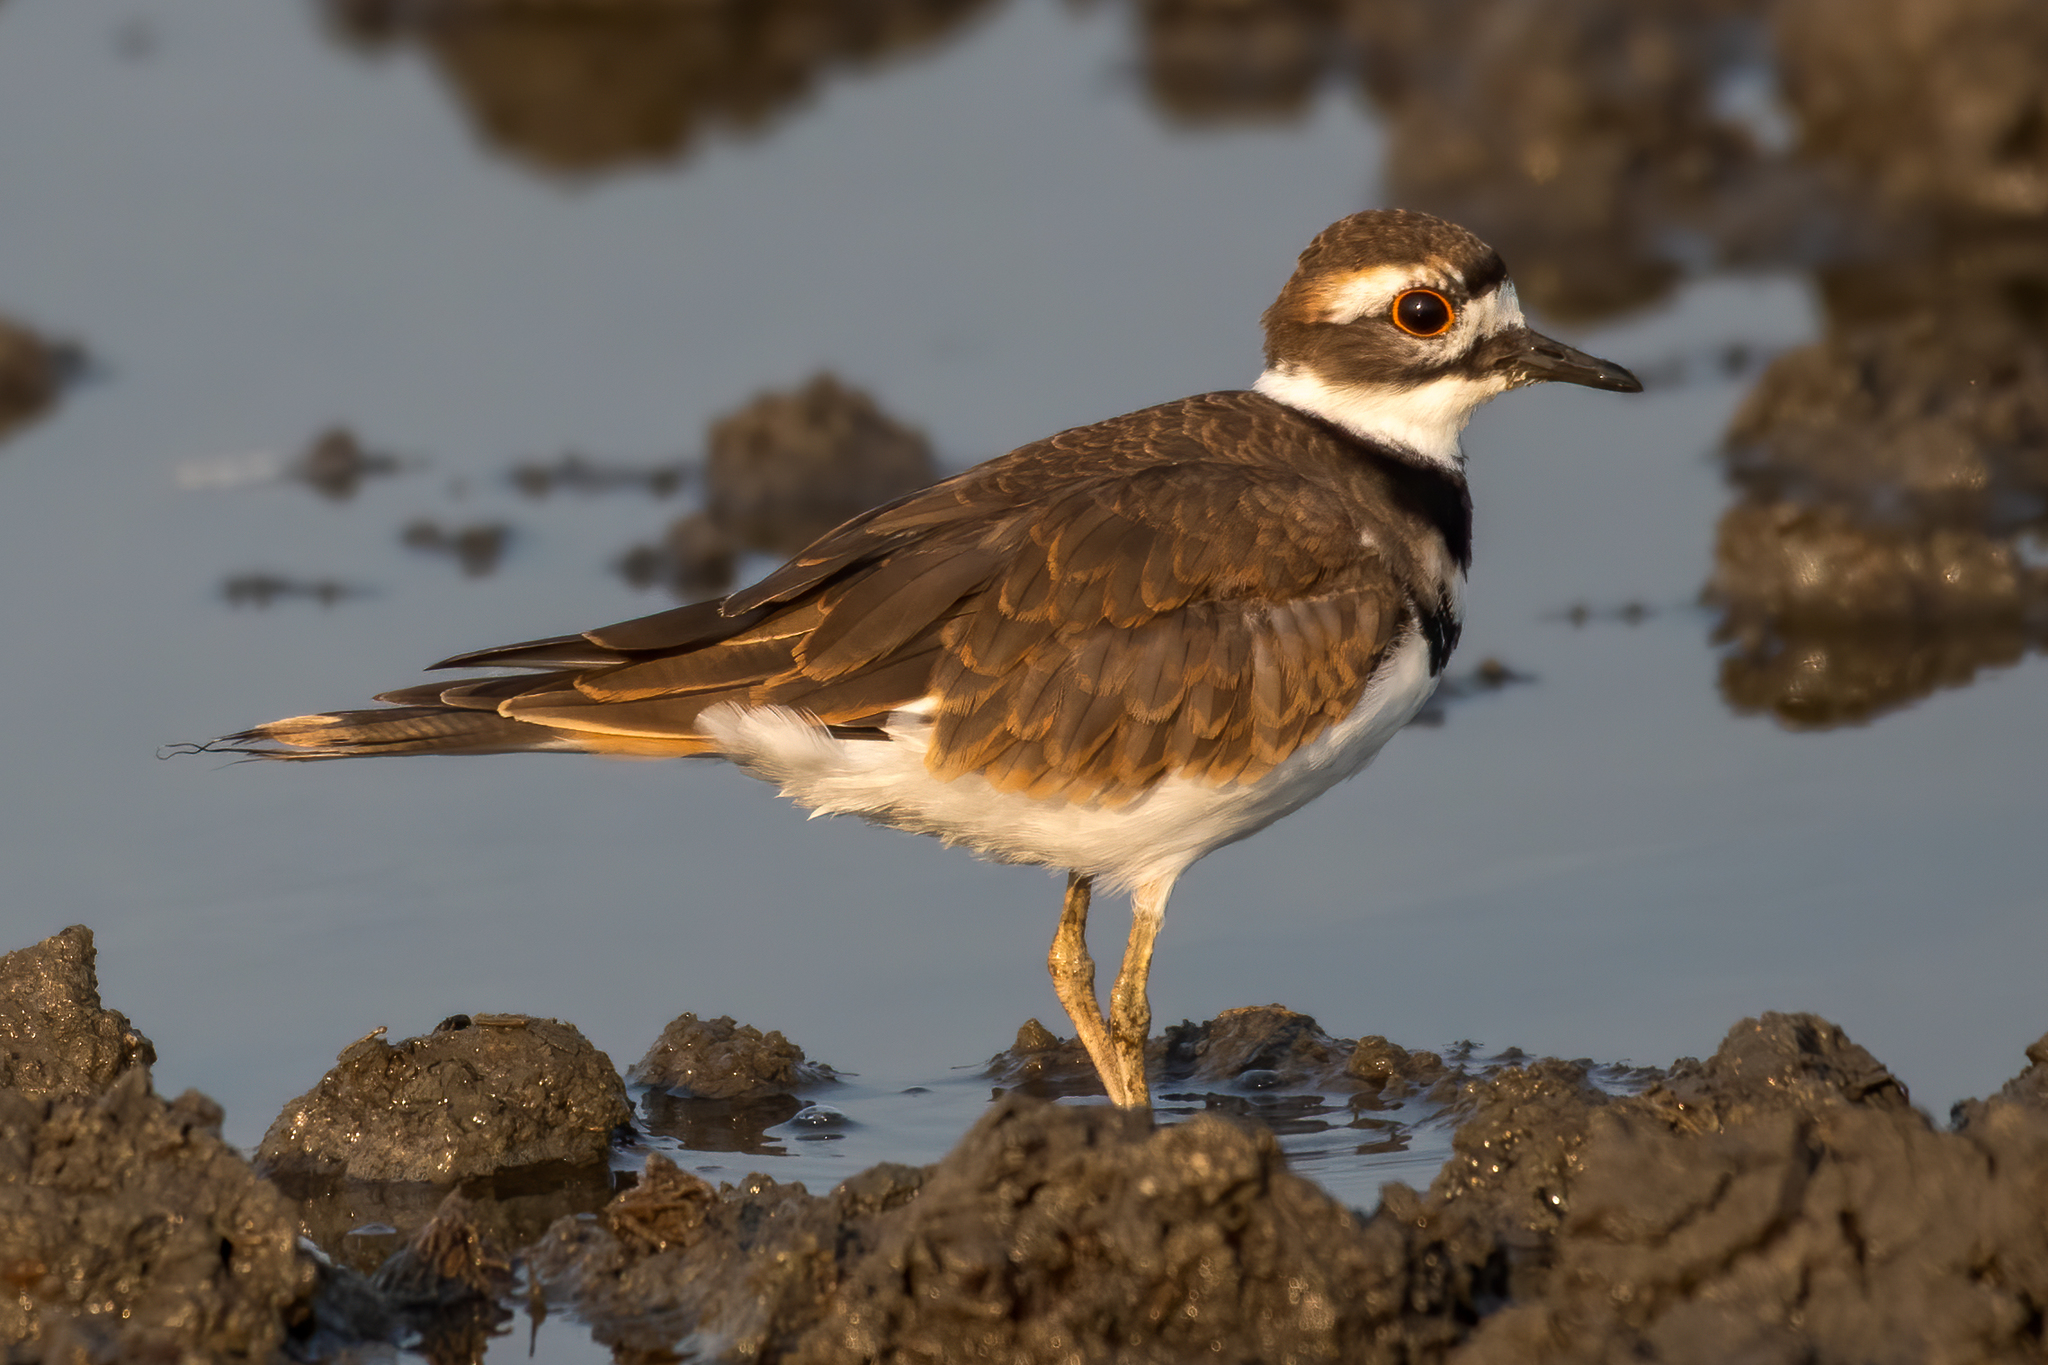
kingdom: Animalia
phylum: Chordata
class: Aves
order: Charadriiformes
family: Charadriidae
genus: Charadrius
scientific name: Charadrius vociferus
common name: Killdeer
